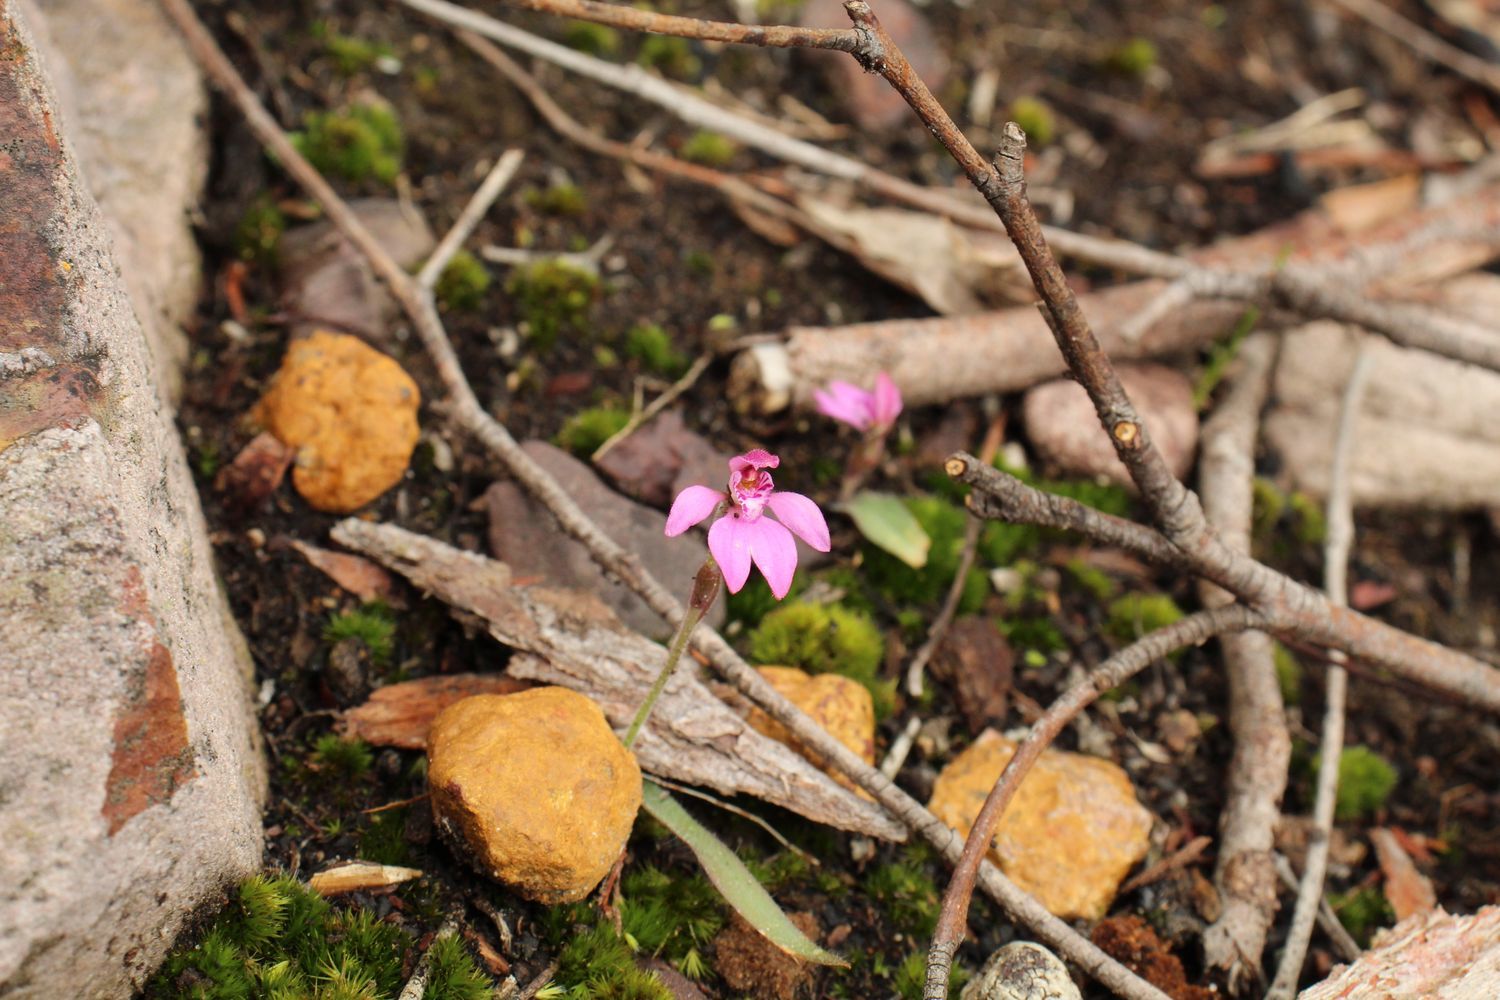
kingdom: Plantae
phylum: Tracheophyta
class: Liliopsida
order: Asparagales
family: Orchidaceae
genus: Caladenia
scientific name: Caladenia nana
